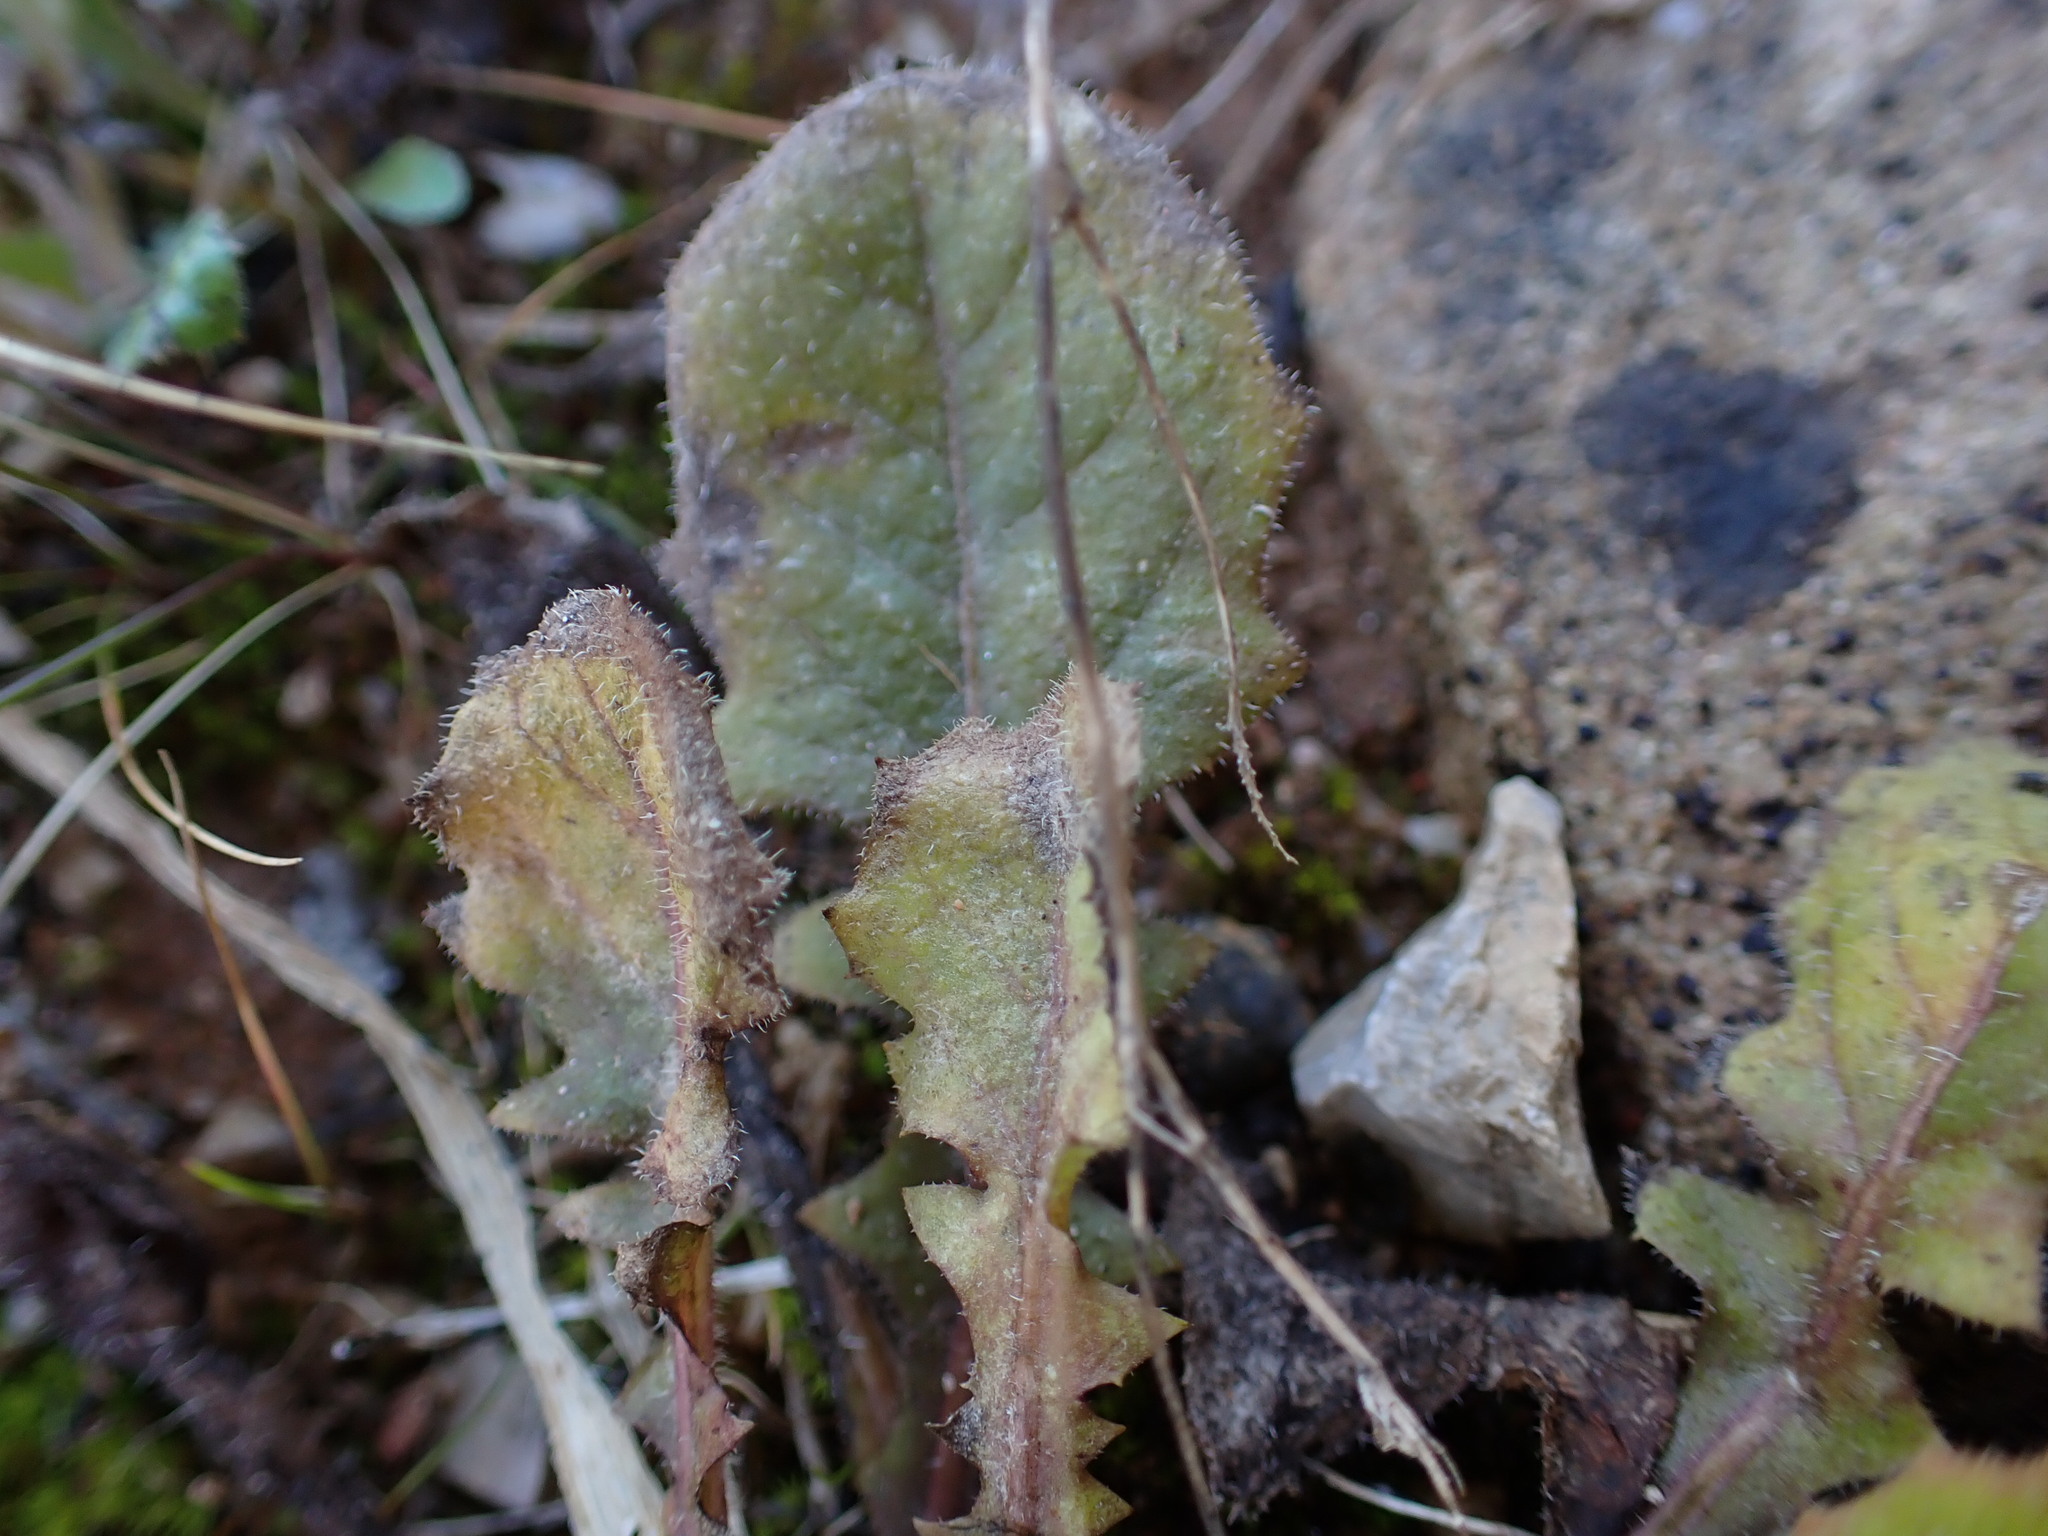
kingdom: Plantae
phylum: Tracheophyta
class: Magnoliopsida
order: Asterales
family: Asteraceae
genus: Crepis
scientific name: Crepis sancta
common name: Hawk's-beard
